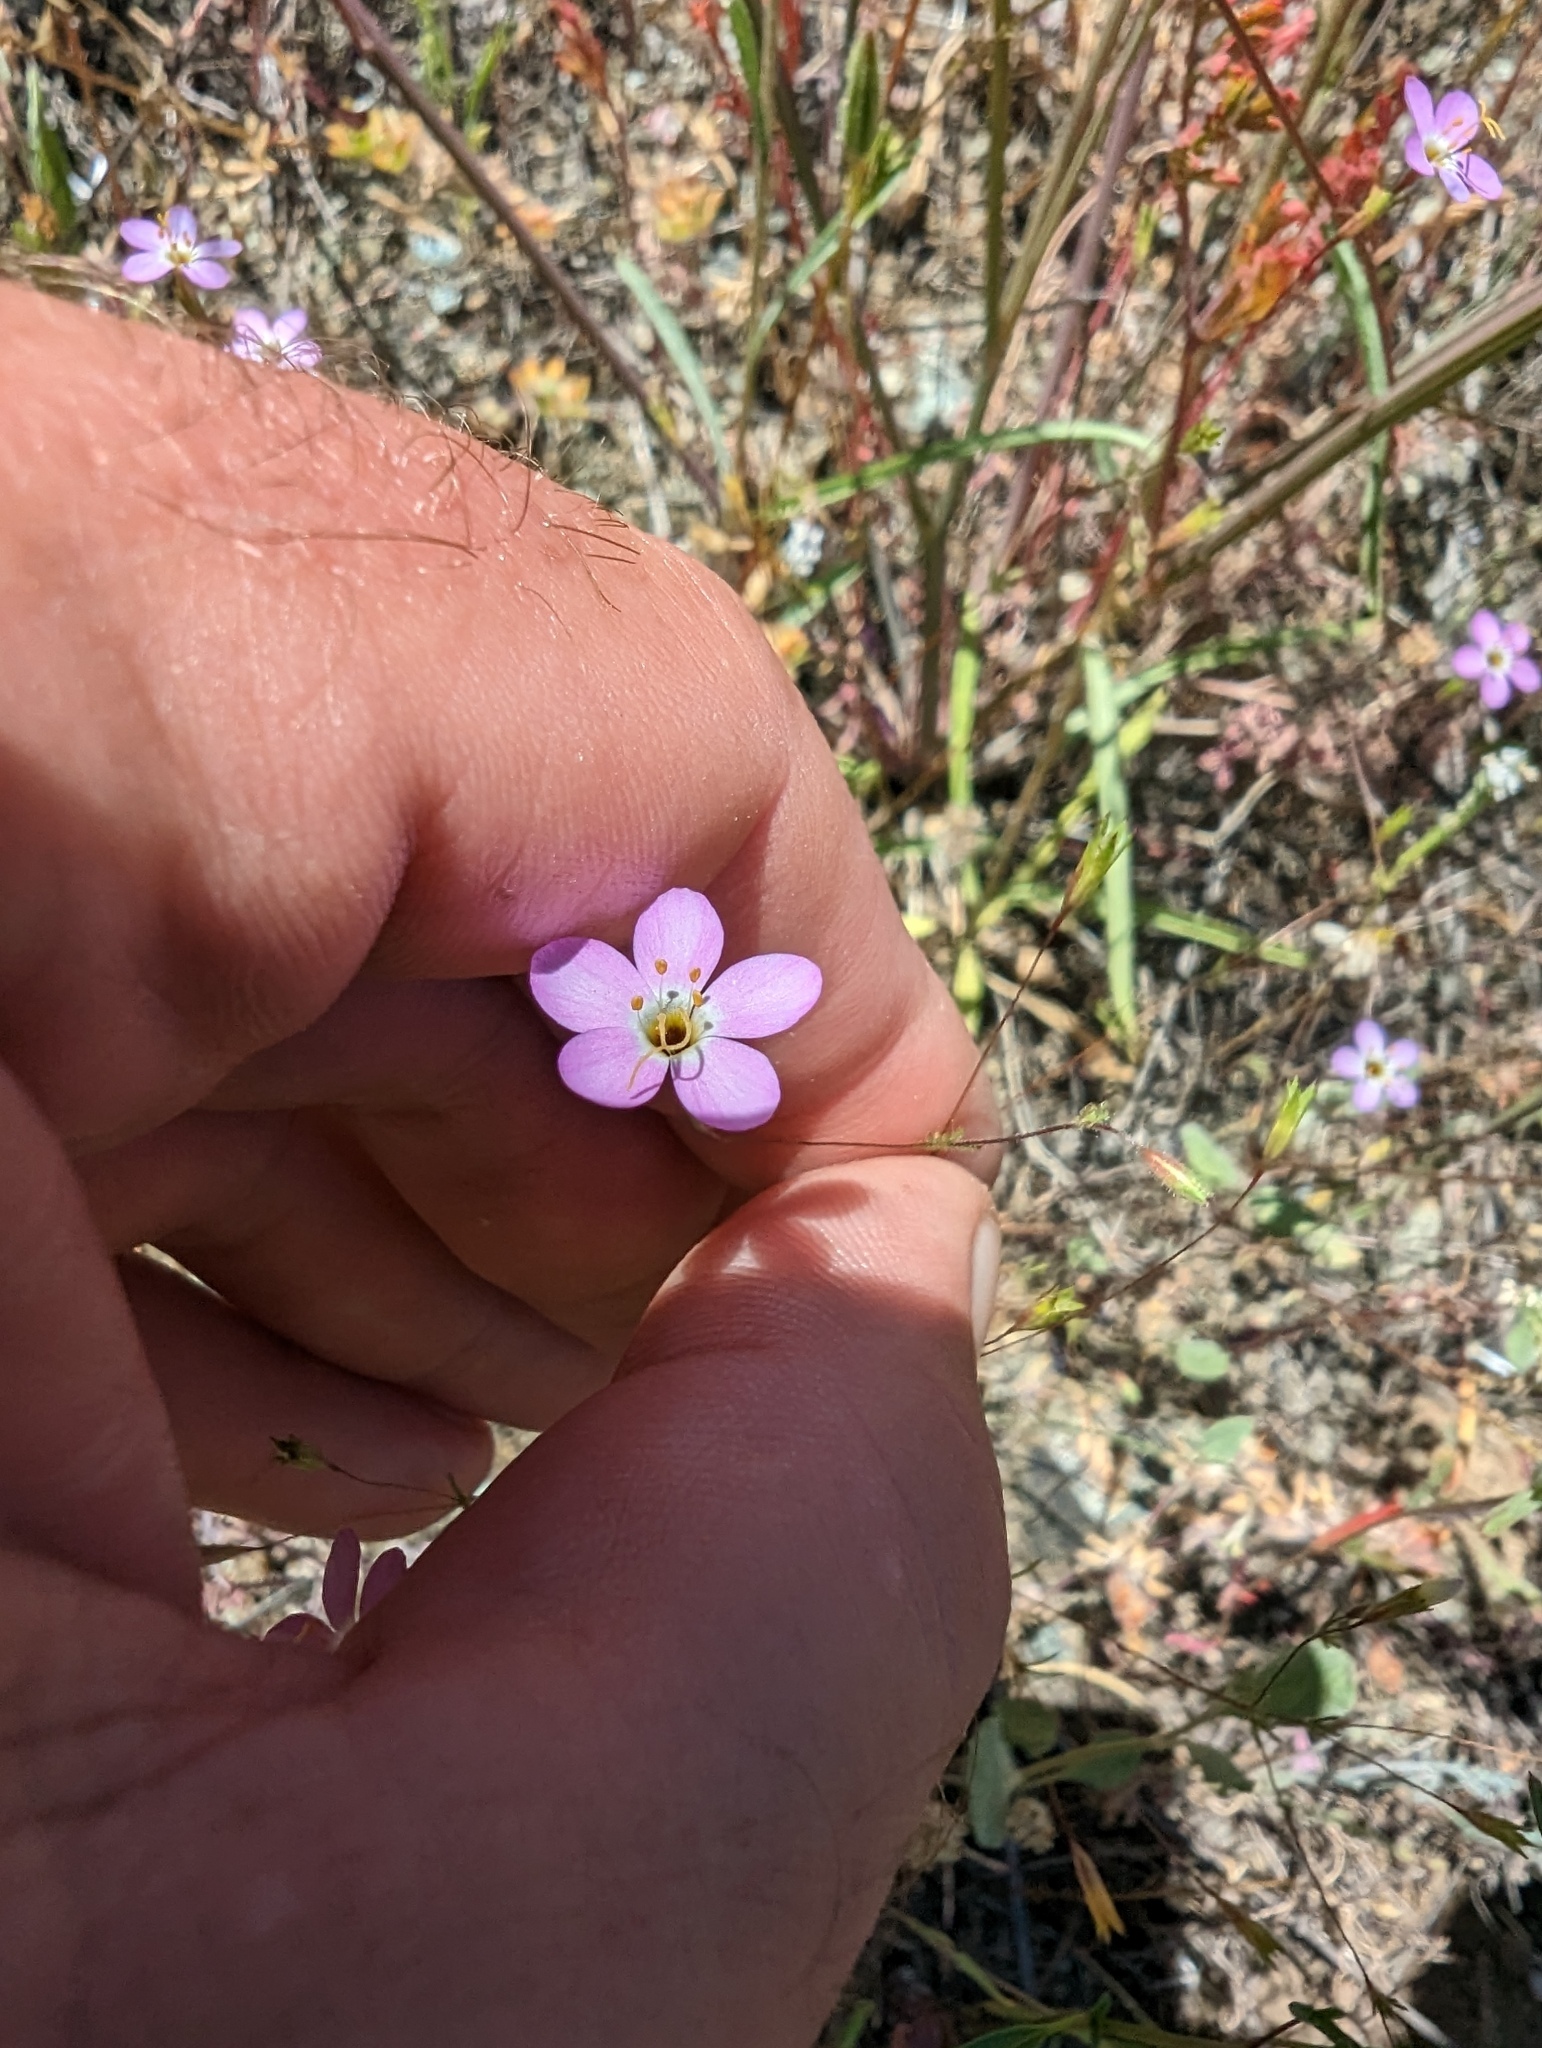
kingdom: Plantae
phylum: Tracheophyta
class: Magnoliopsida
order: Ericales
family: Polemoniaceae
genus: Leptosiphon
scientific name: Leptosiphon ambiguus
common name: Serpentine linanthus
